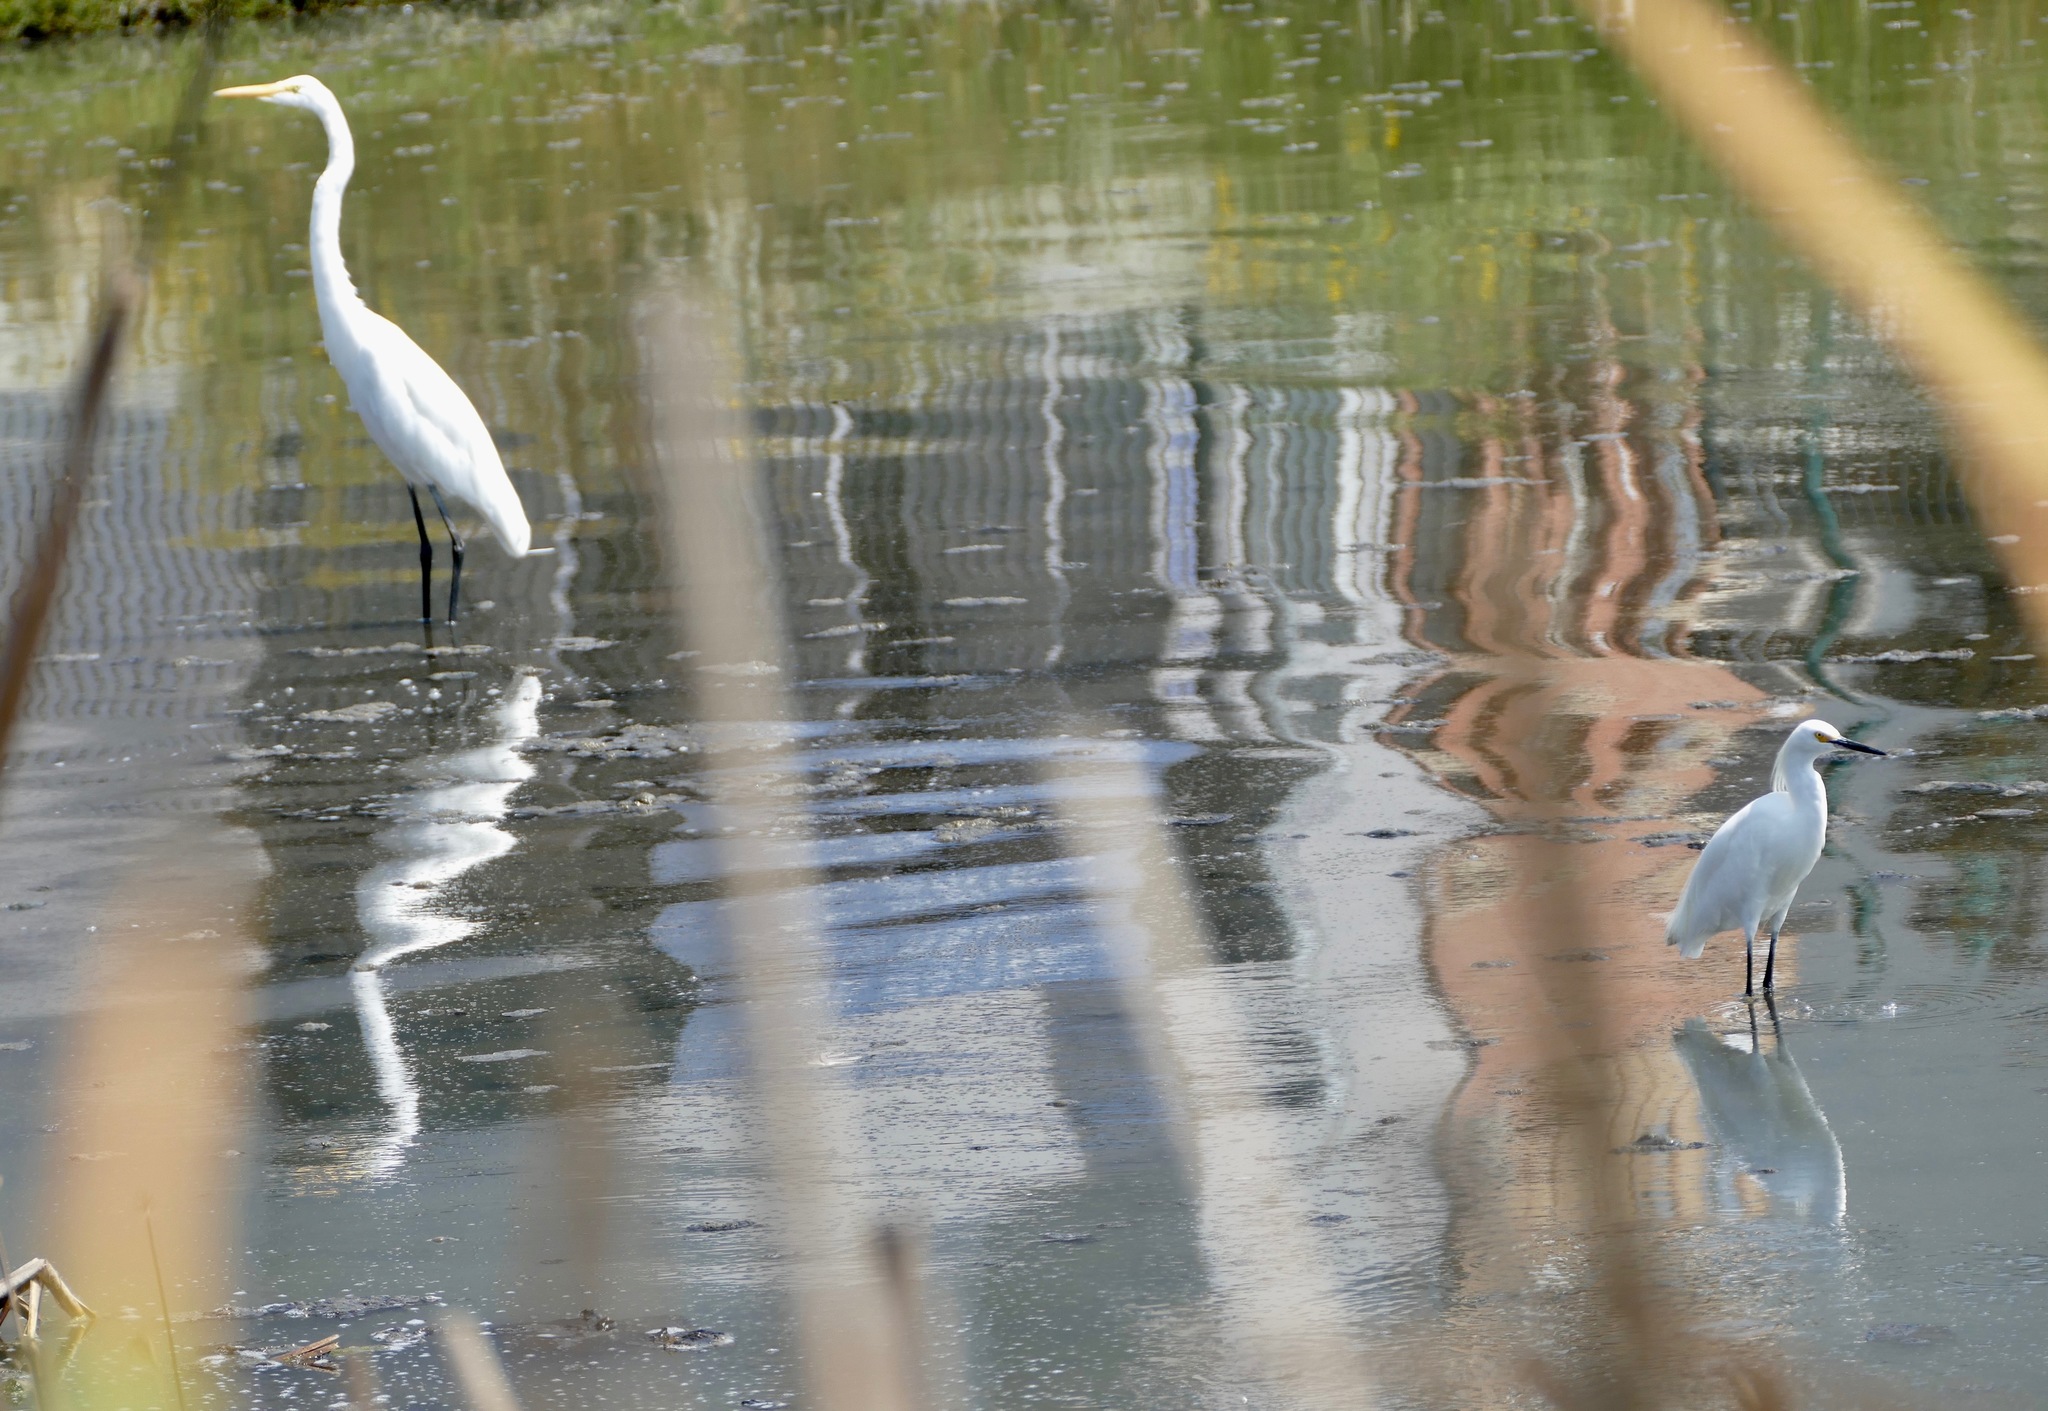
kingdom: Animalia
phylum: Chordata
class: Aves
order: Pelecaniformes
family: Ardeidae
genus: Egretta
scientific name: Egretta thula
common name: Snowy egret
